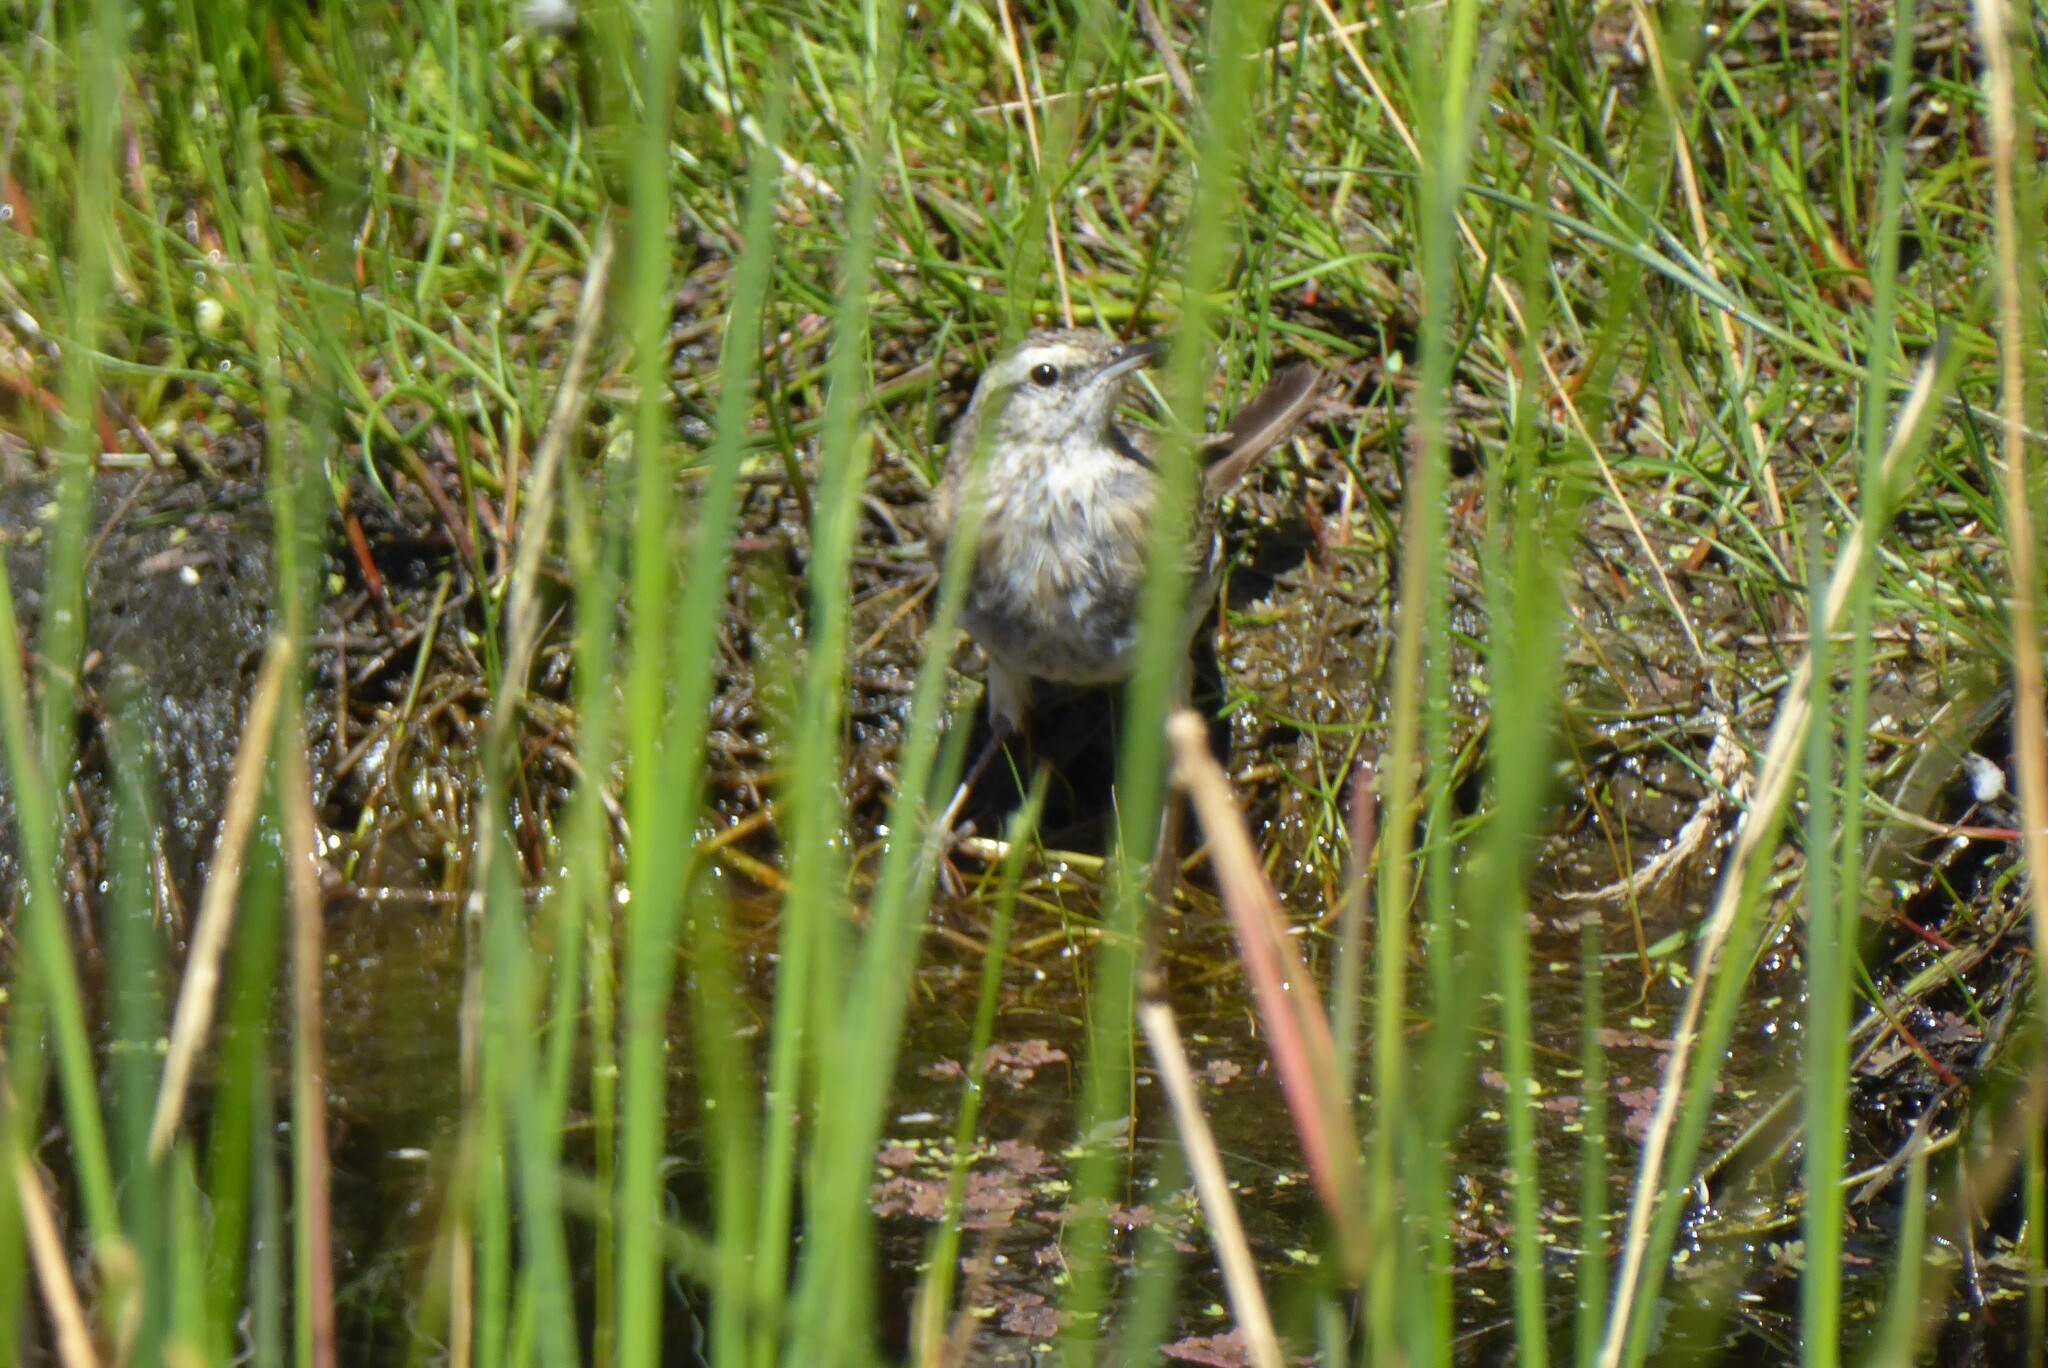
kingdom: Animalia
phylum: Chordata
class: Aves
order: Passeriformes
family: Motacillidae
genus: Anthus
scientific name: Anthus novaeseelandiae
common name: New zealand pipit
